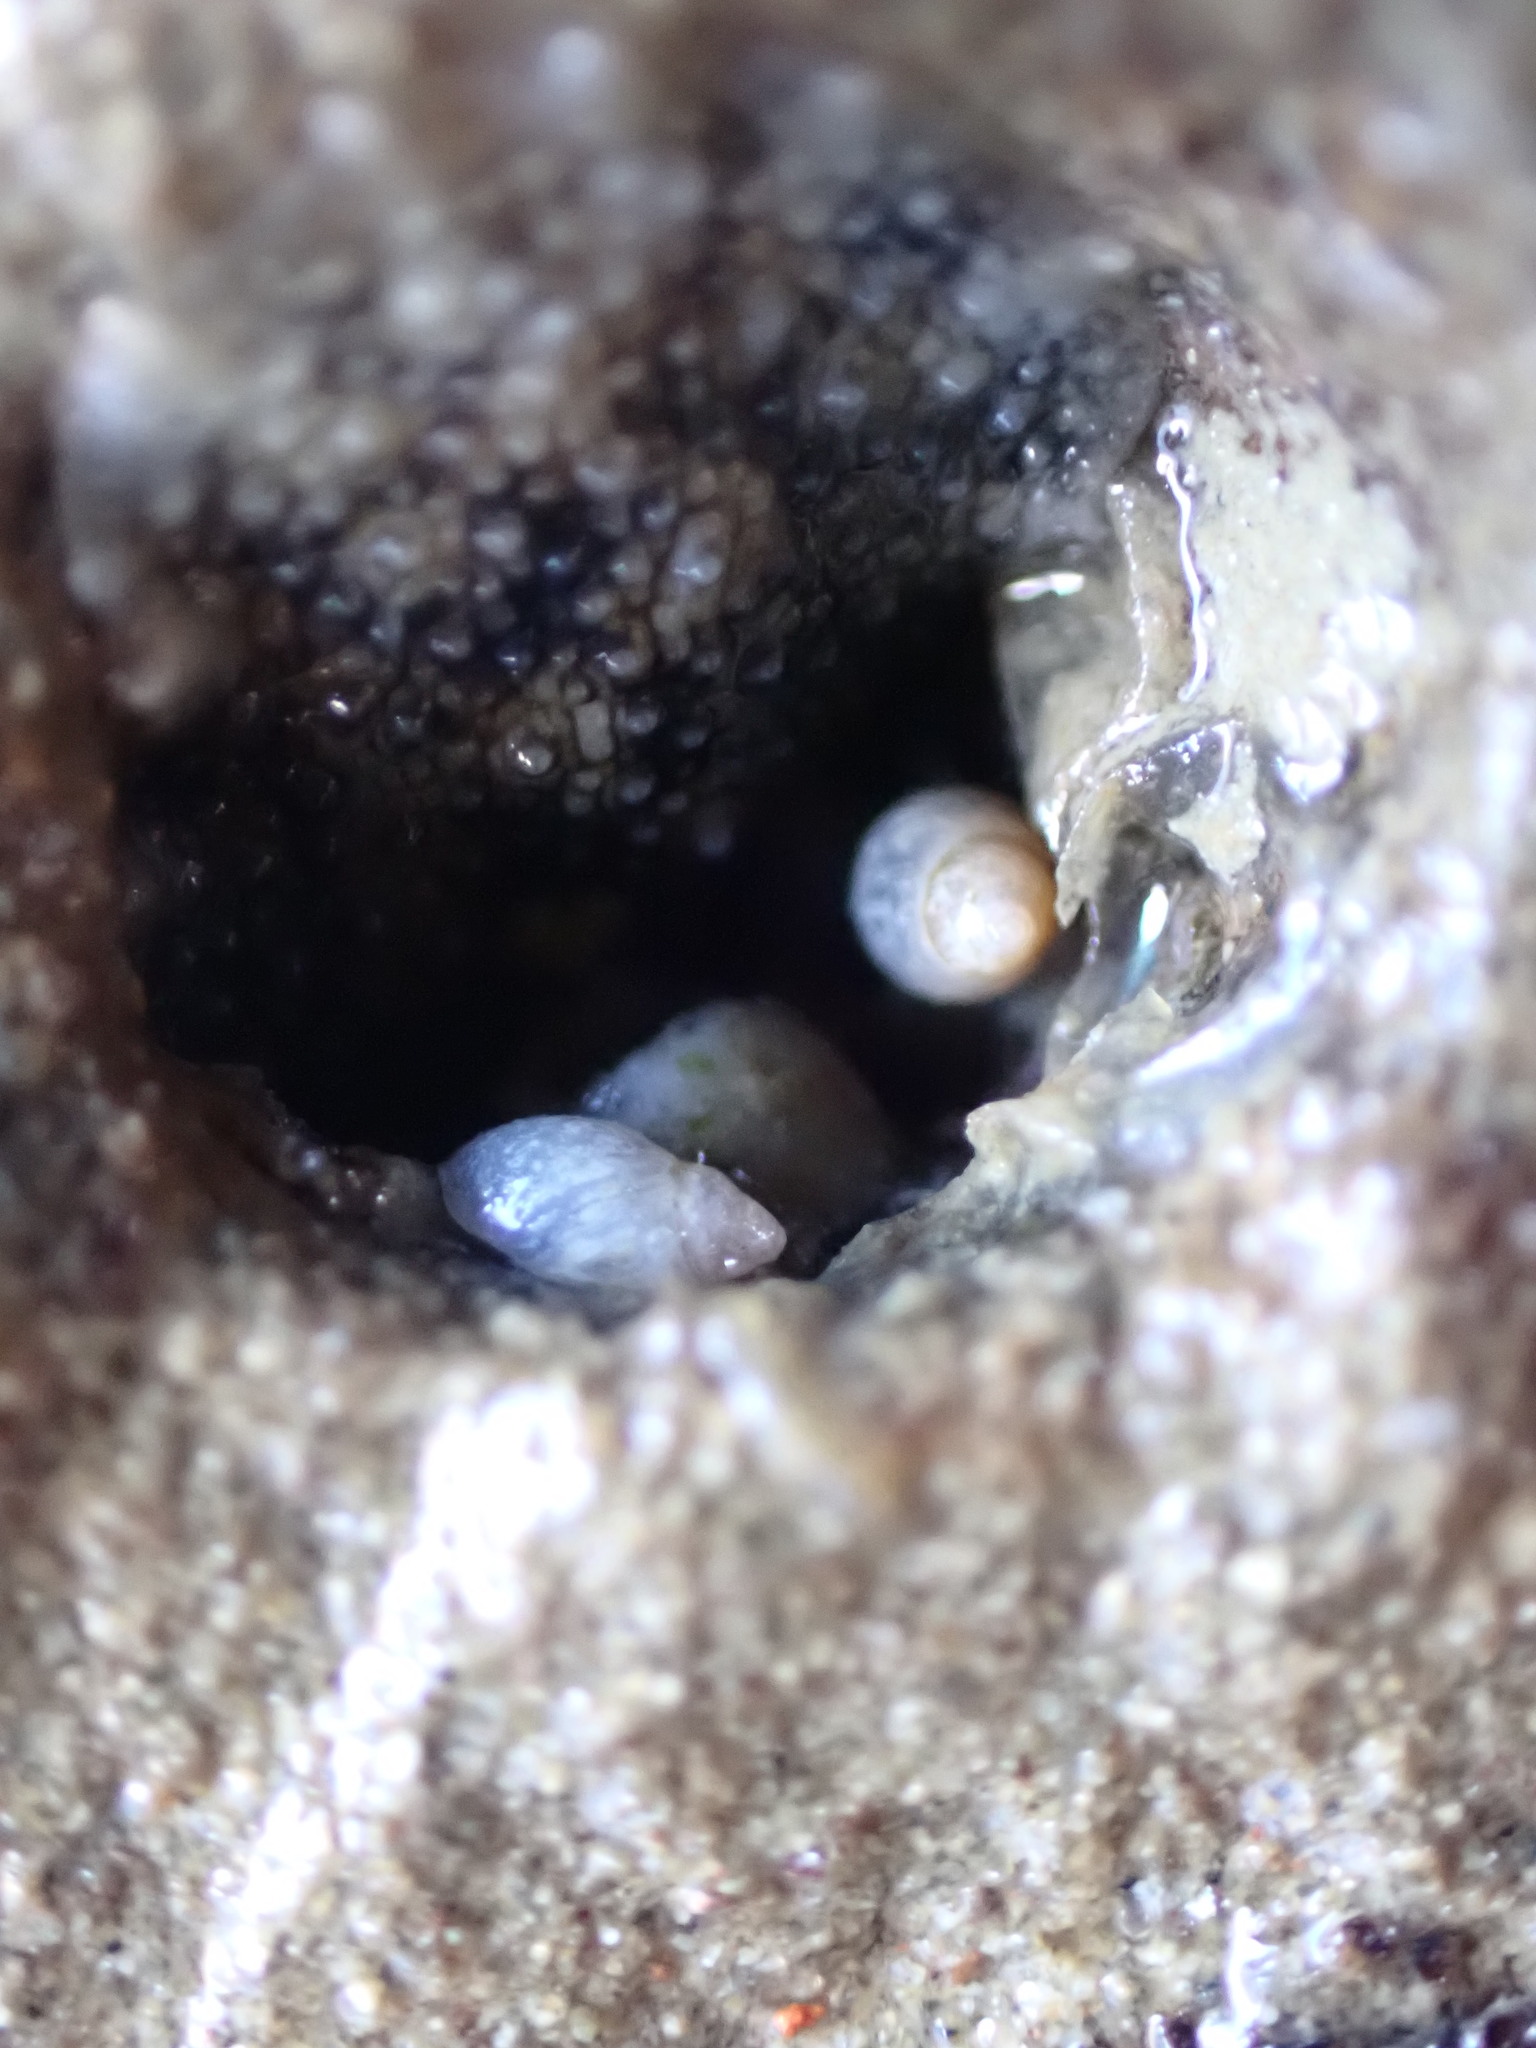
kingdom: Animalia
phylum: Mollusca
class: Gastropoda
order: Ellobiida
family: Ellobiidae
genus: Leuconopsis
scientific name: Leuconopsis obsoleta
